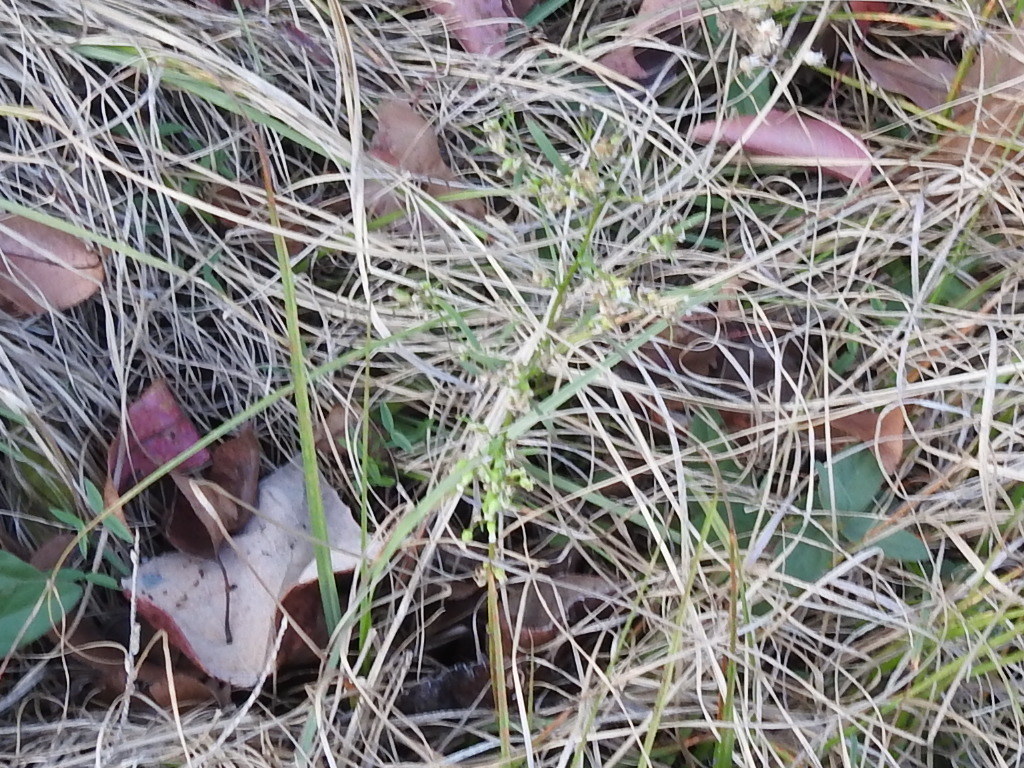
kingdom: Plantae
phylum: Tracheophyta
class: Magnoliopsida
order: Asterales
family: Asteraceae
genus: Erigeron
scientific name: Erigeron canadensis
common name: Canadian fleabane
